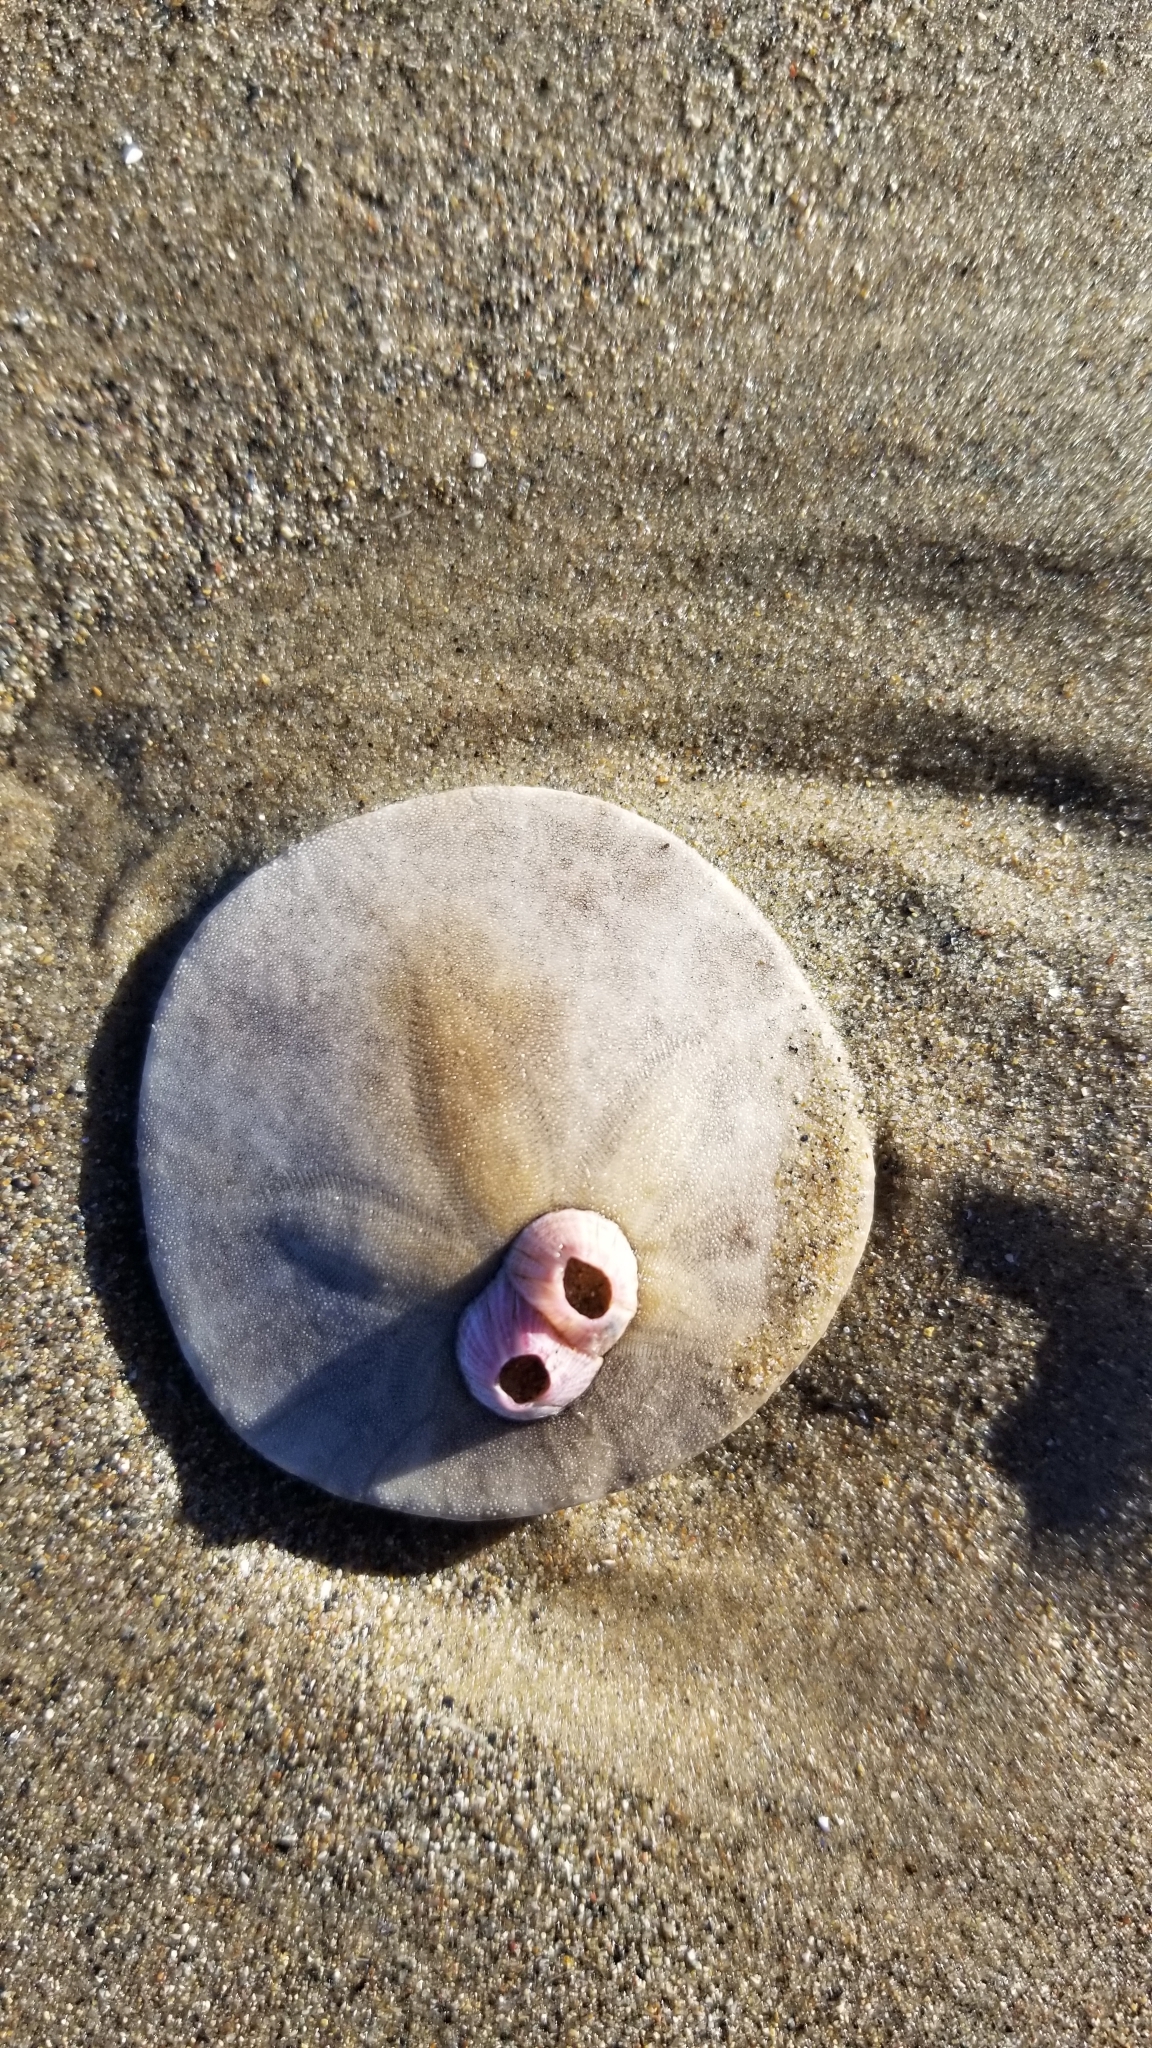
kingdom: Animalia
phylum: Echinodermata
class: Echinoidea
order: Echinolampadacea
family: Dendrasteridae
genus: Dendraster
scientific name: Dendraster excentricus
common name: Eccentric sand dollar sea urchin
